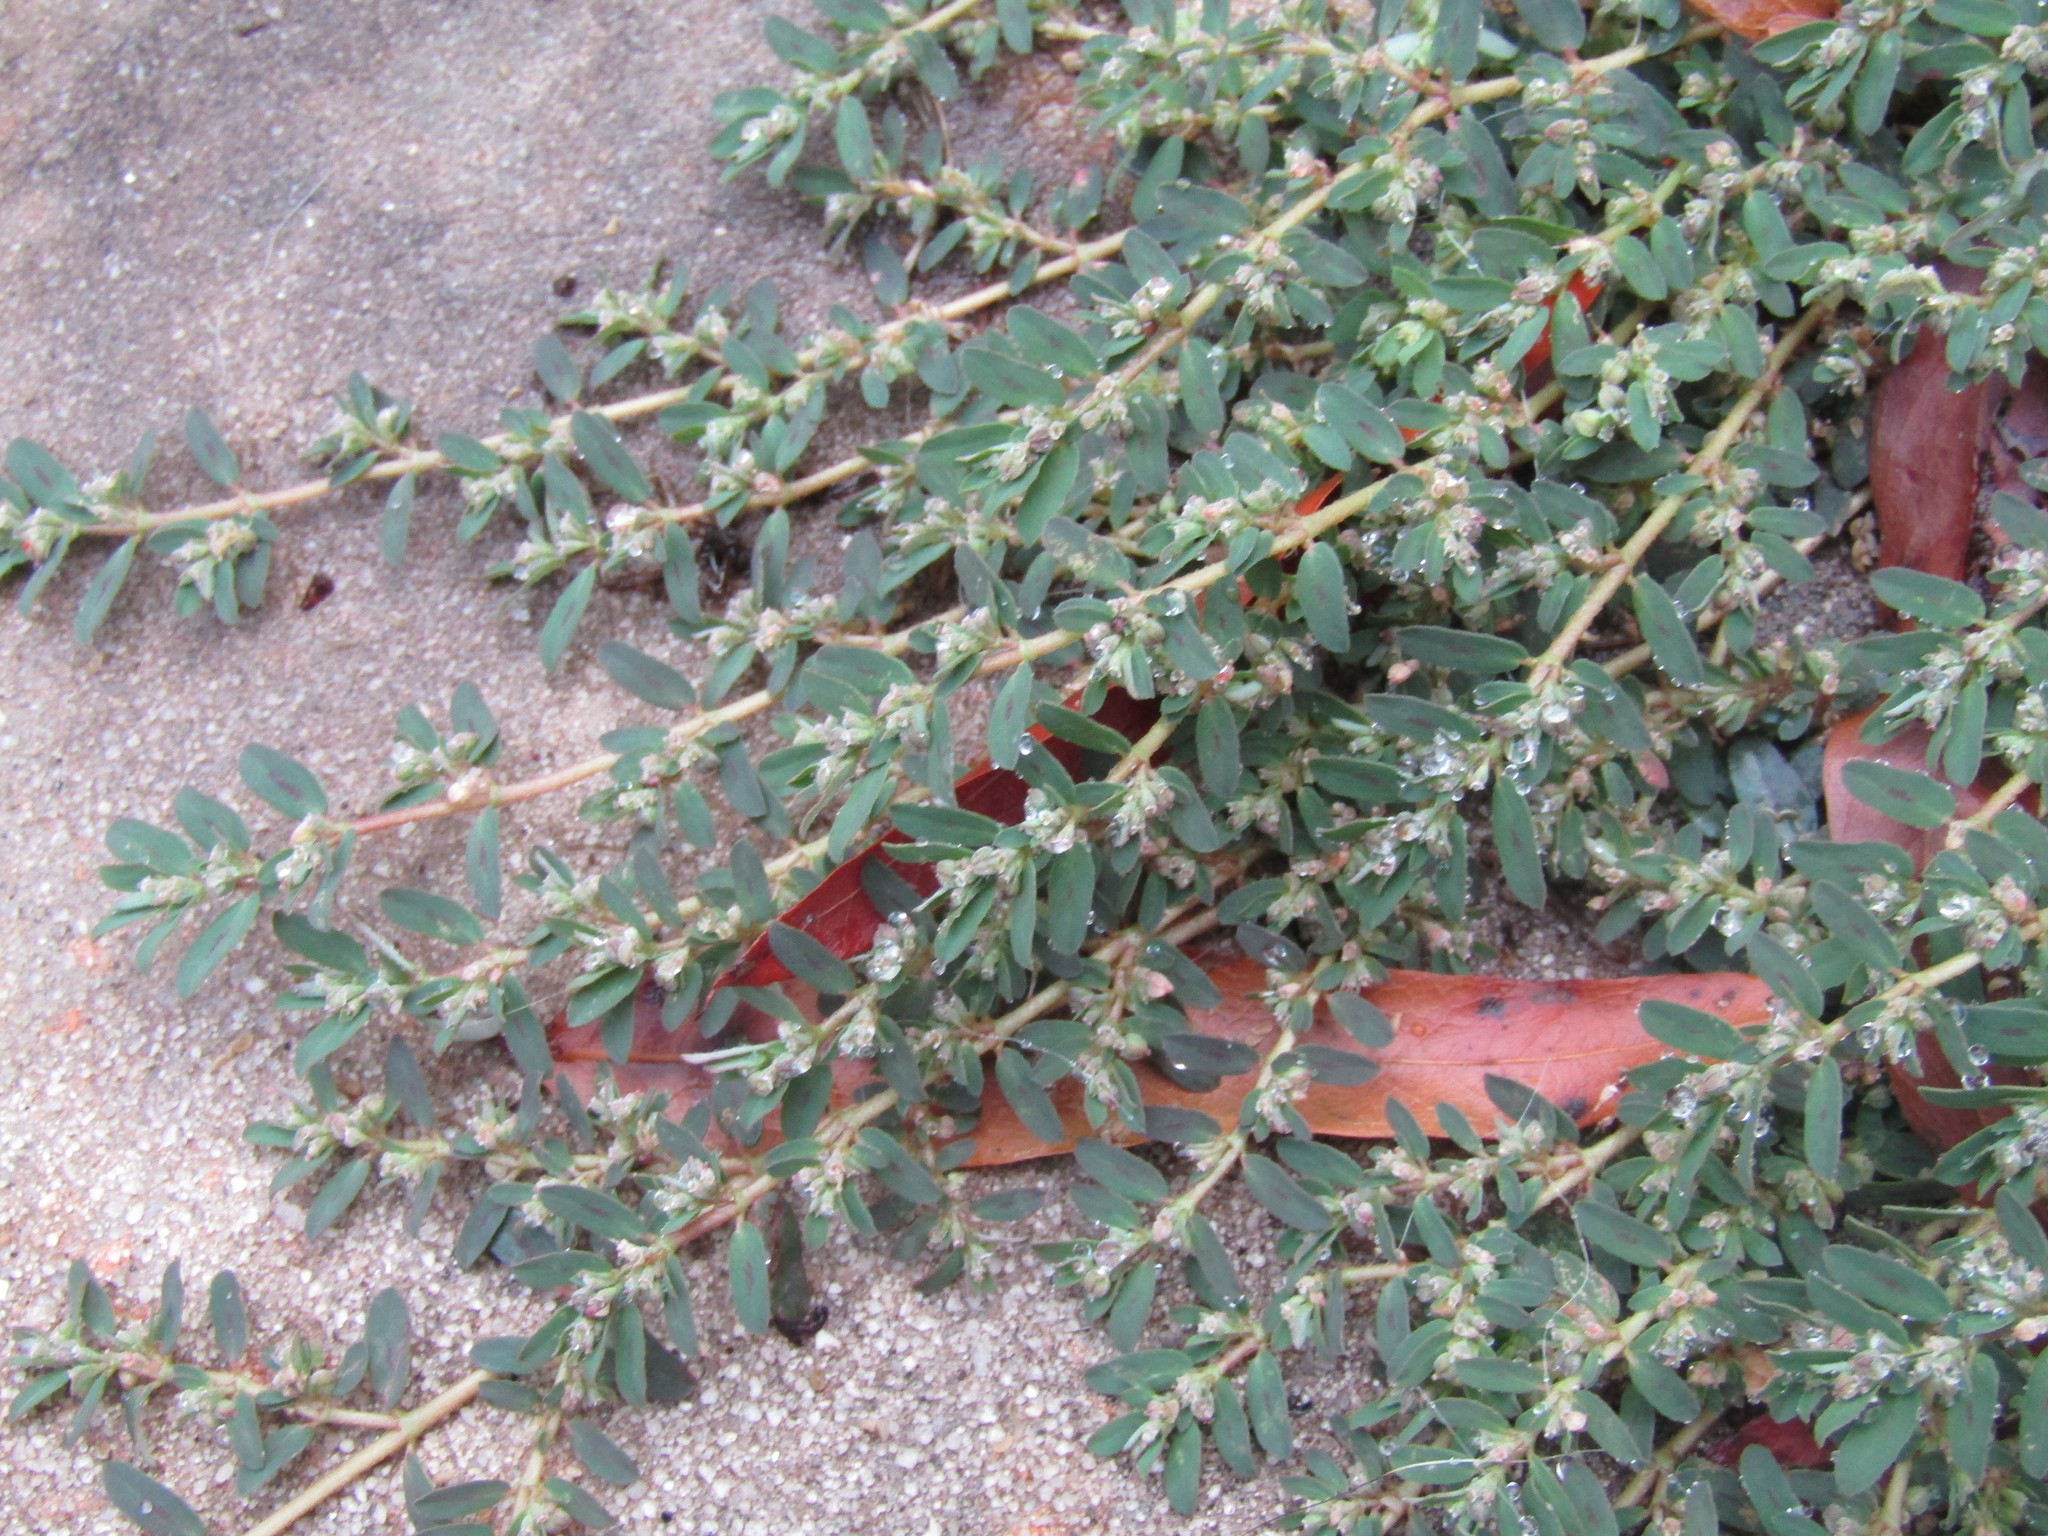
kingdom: Plantae
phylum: Tracheophyta
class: Magnoliopsida
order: Malpighiales
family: Euphorbiaceae
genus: Euphorbia
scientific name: Euphorbia maculata
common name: Spotted spurge
